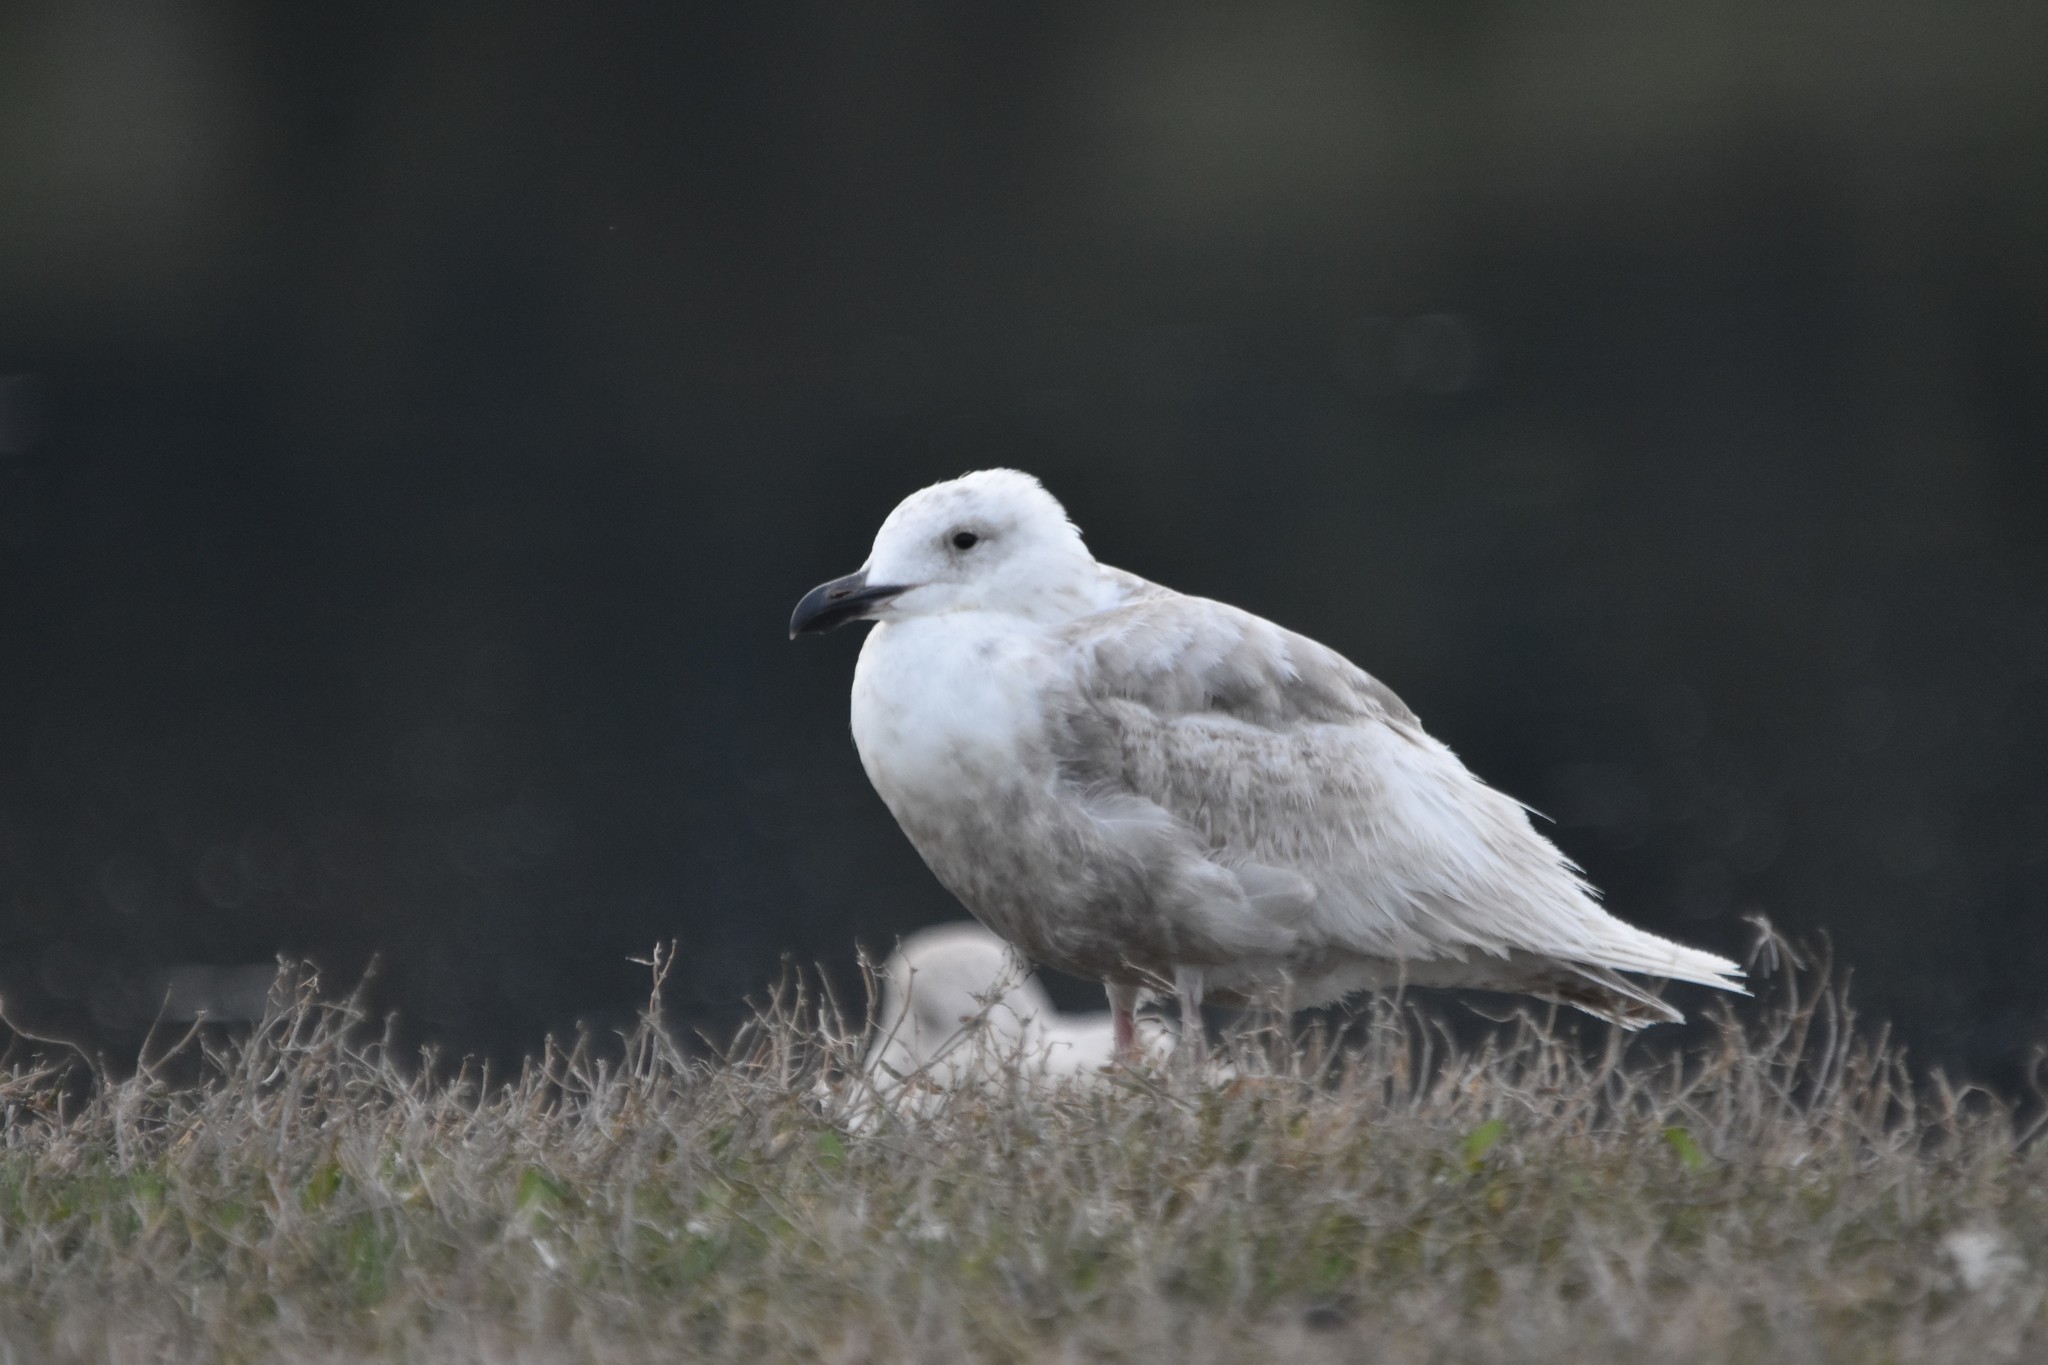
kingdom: Animalia
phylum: Chordata
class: Aves
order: Charadriiformes
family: Laridae
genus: Larus
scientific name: Larus glaucescens
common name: Glaucous-winged gull
